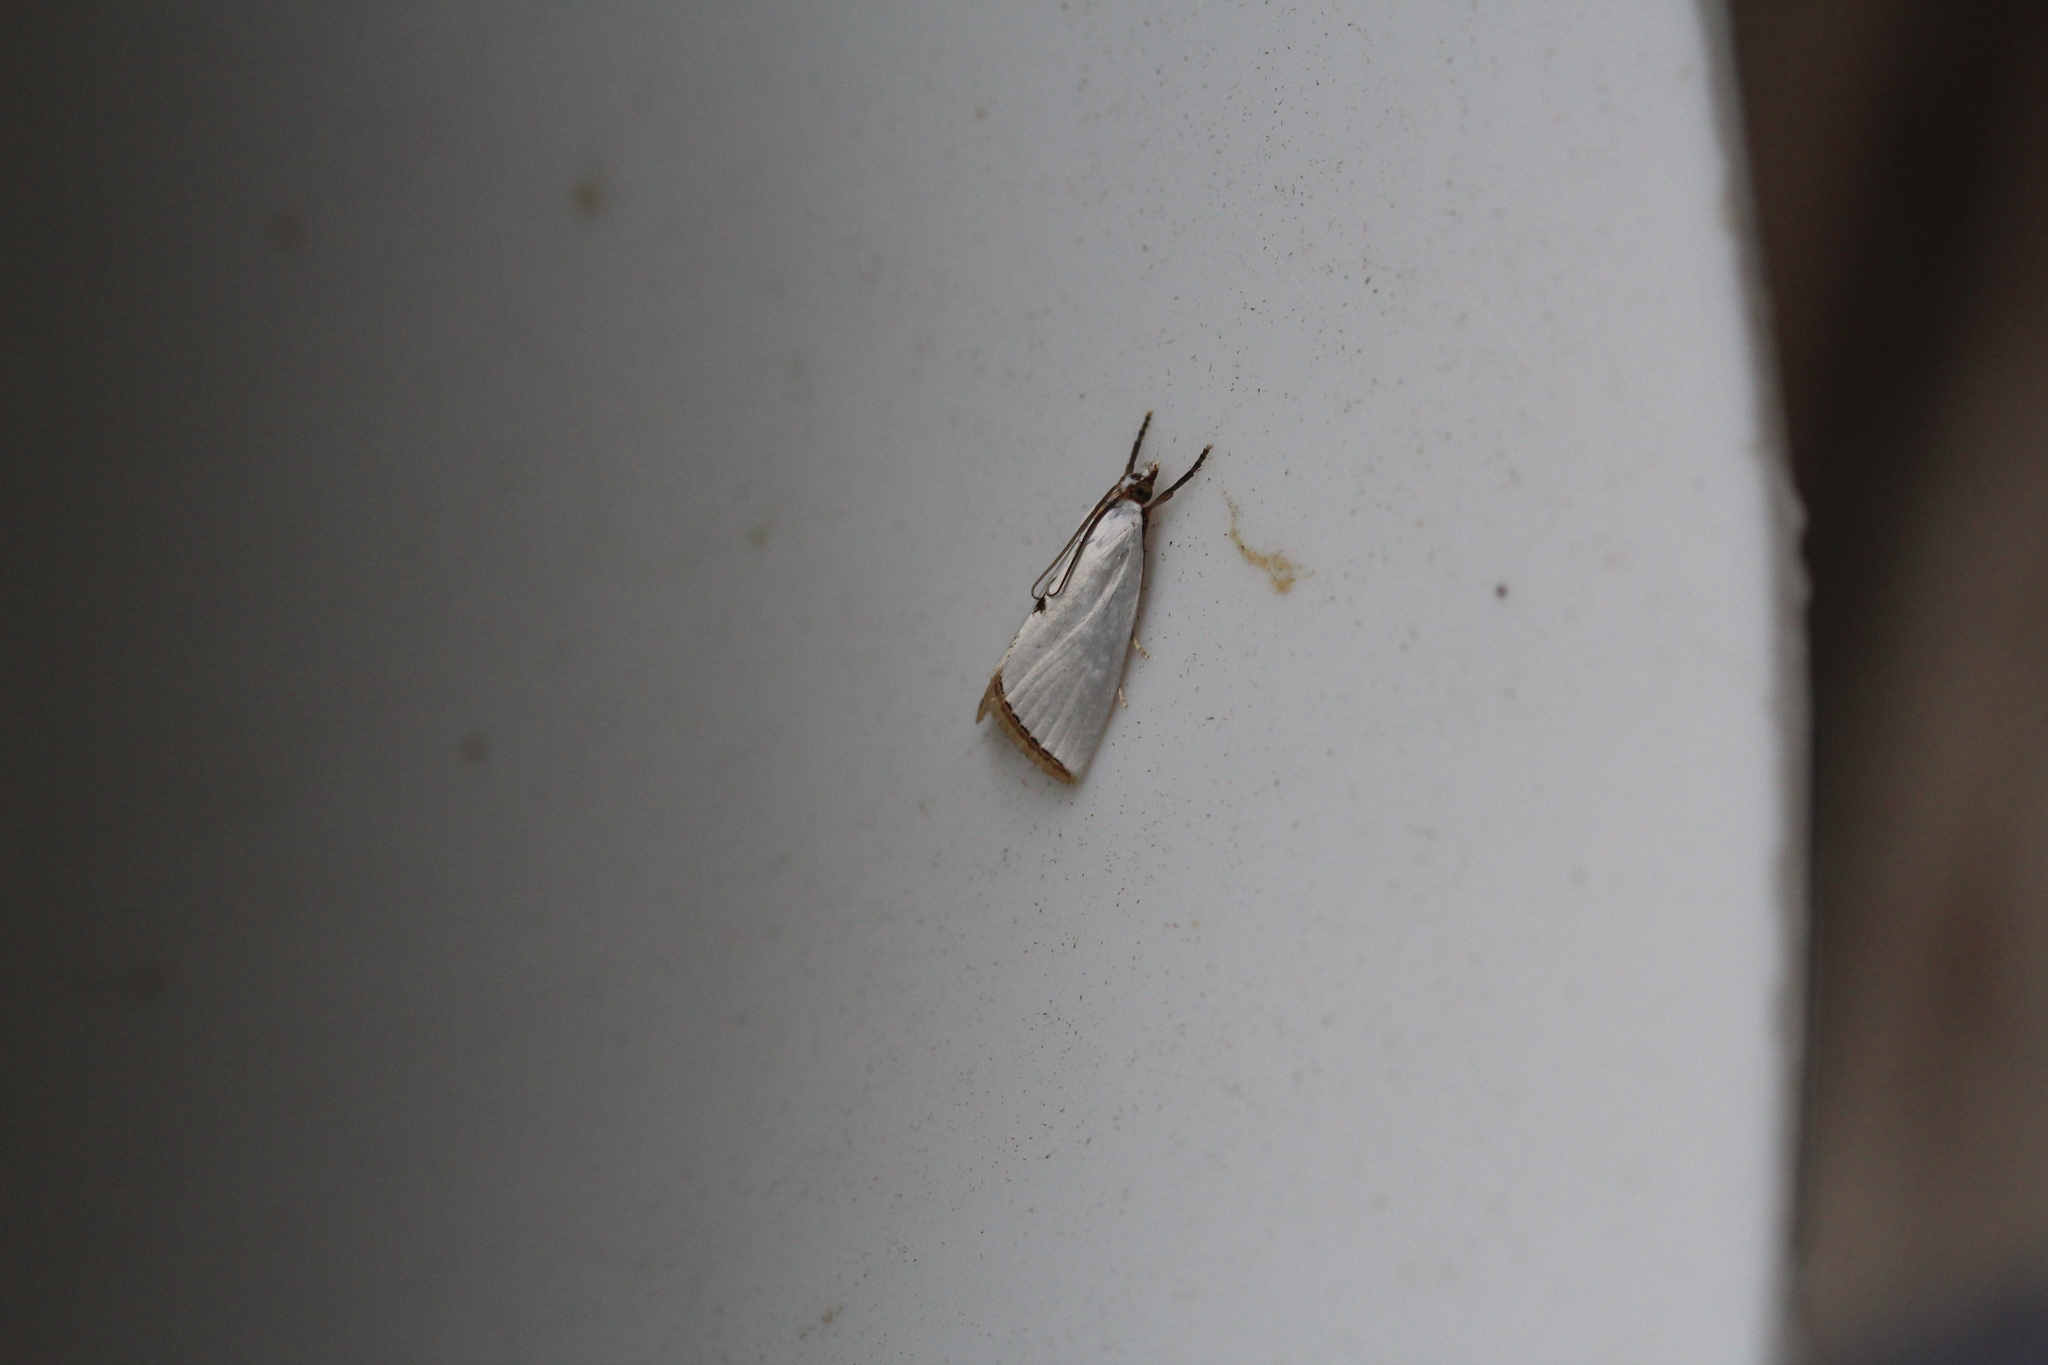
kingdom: Animalia
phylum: Arthropoda
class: Insecta
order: Lepidoptera
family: Crambidae
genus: Argyria
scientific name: Argyria nivalis
